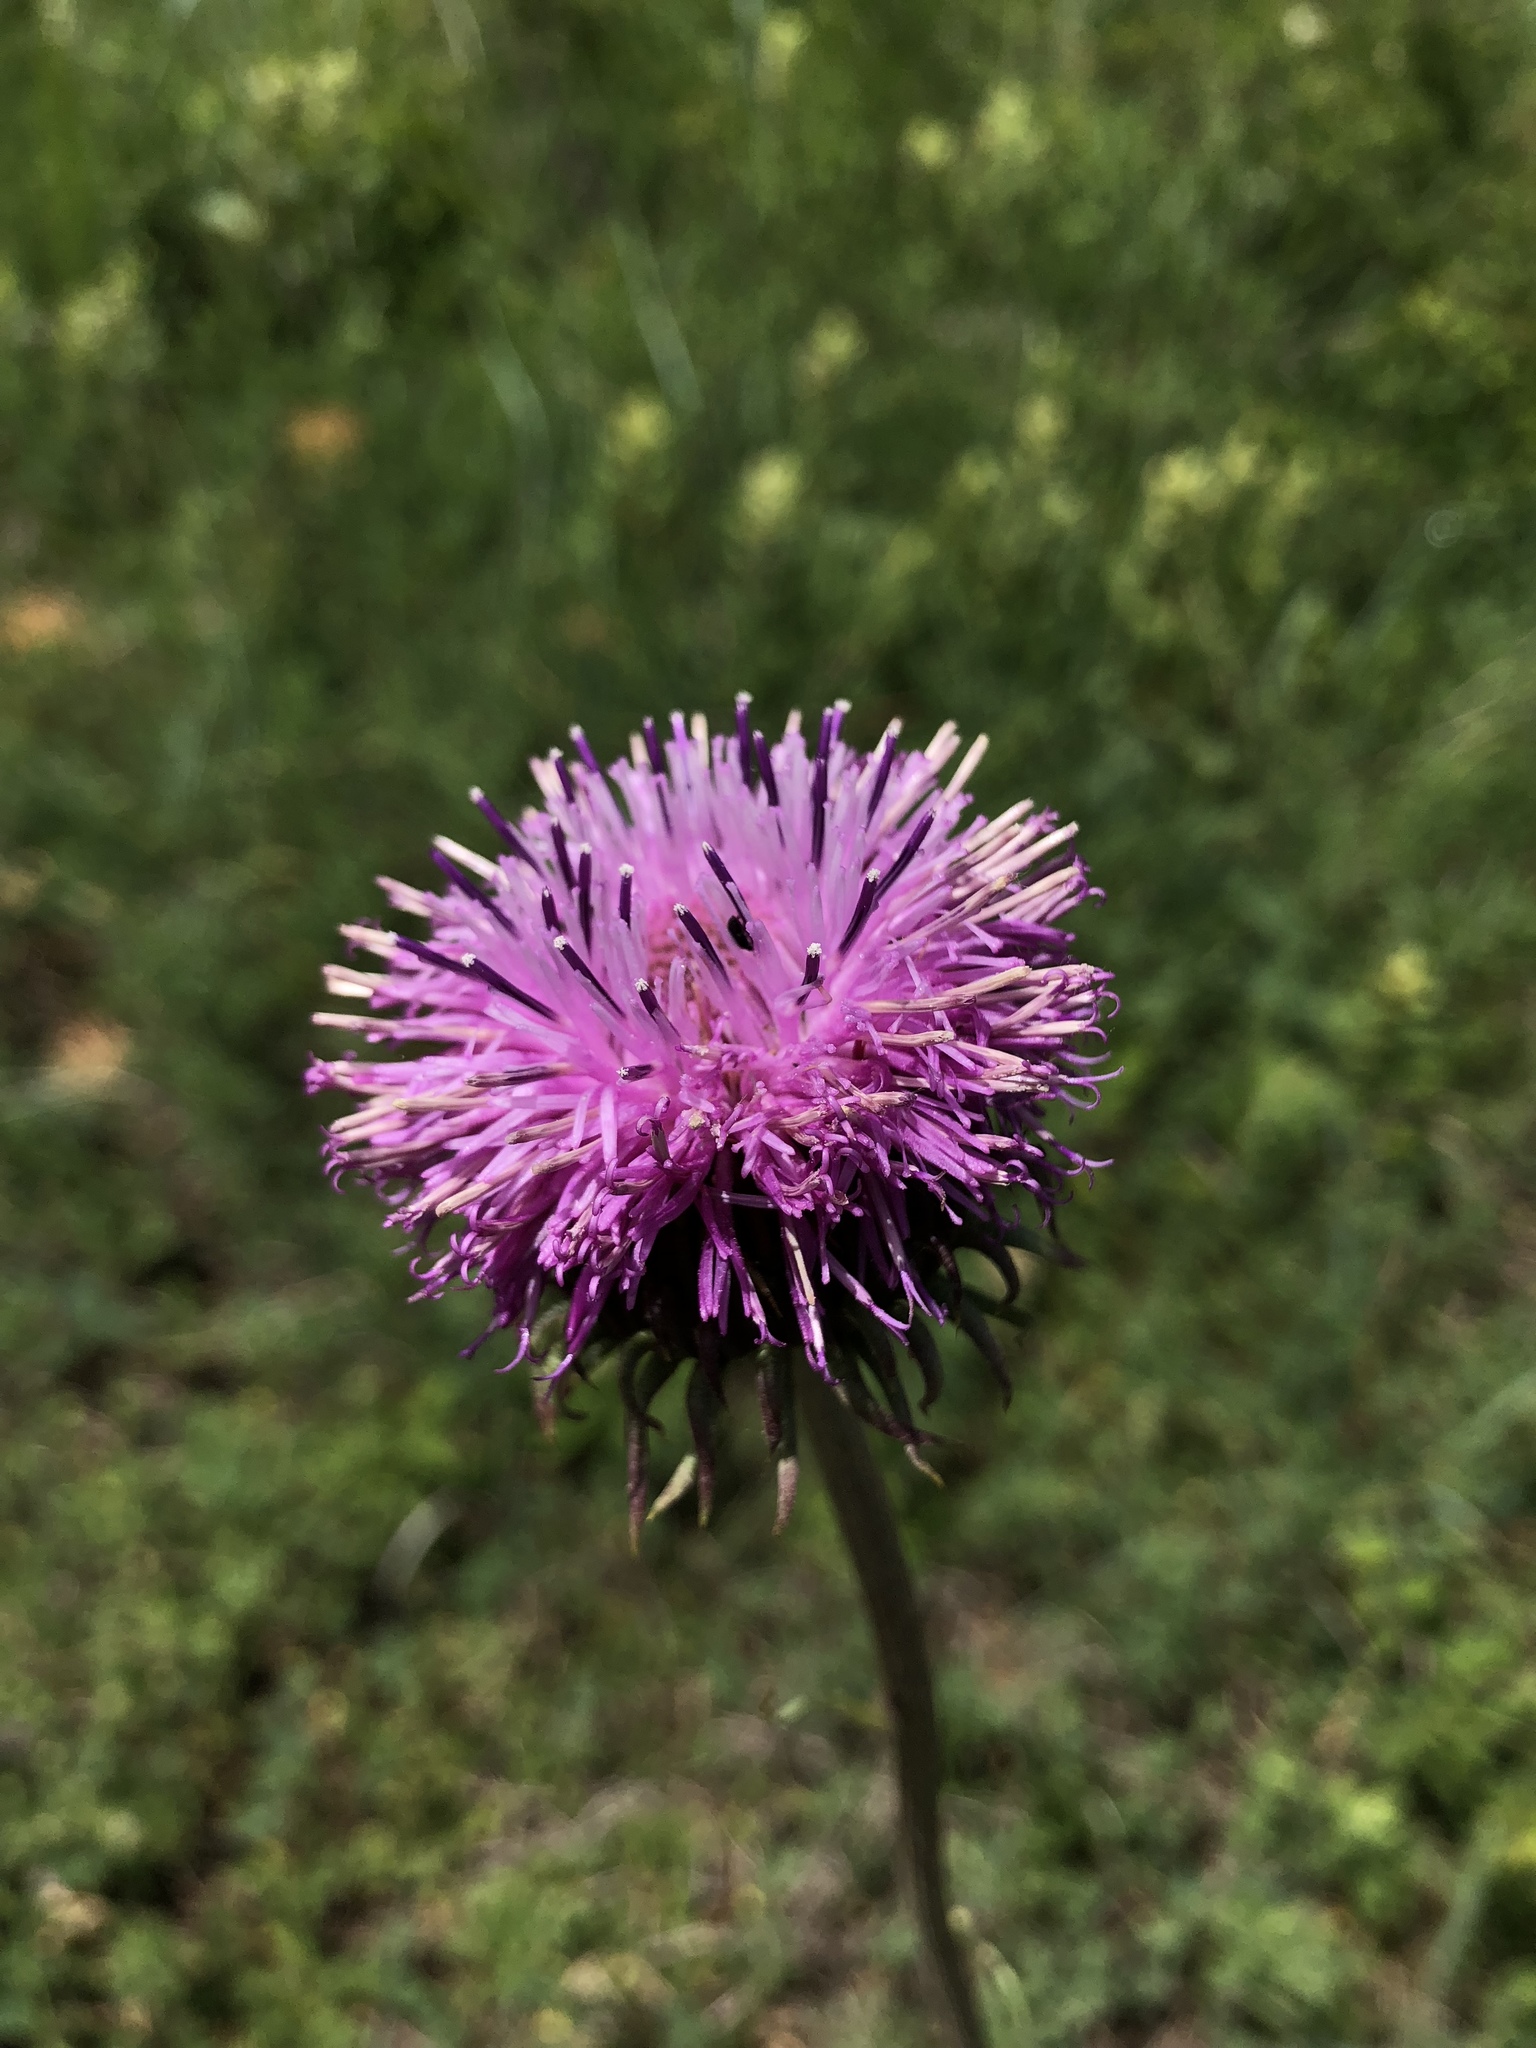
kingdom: Plantae
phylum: Tracheophyta
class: Magnoliopsida
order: Asterales
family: Asteraceae
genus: Jurinea
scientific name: Jurinea mollis
